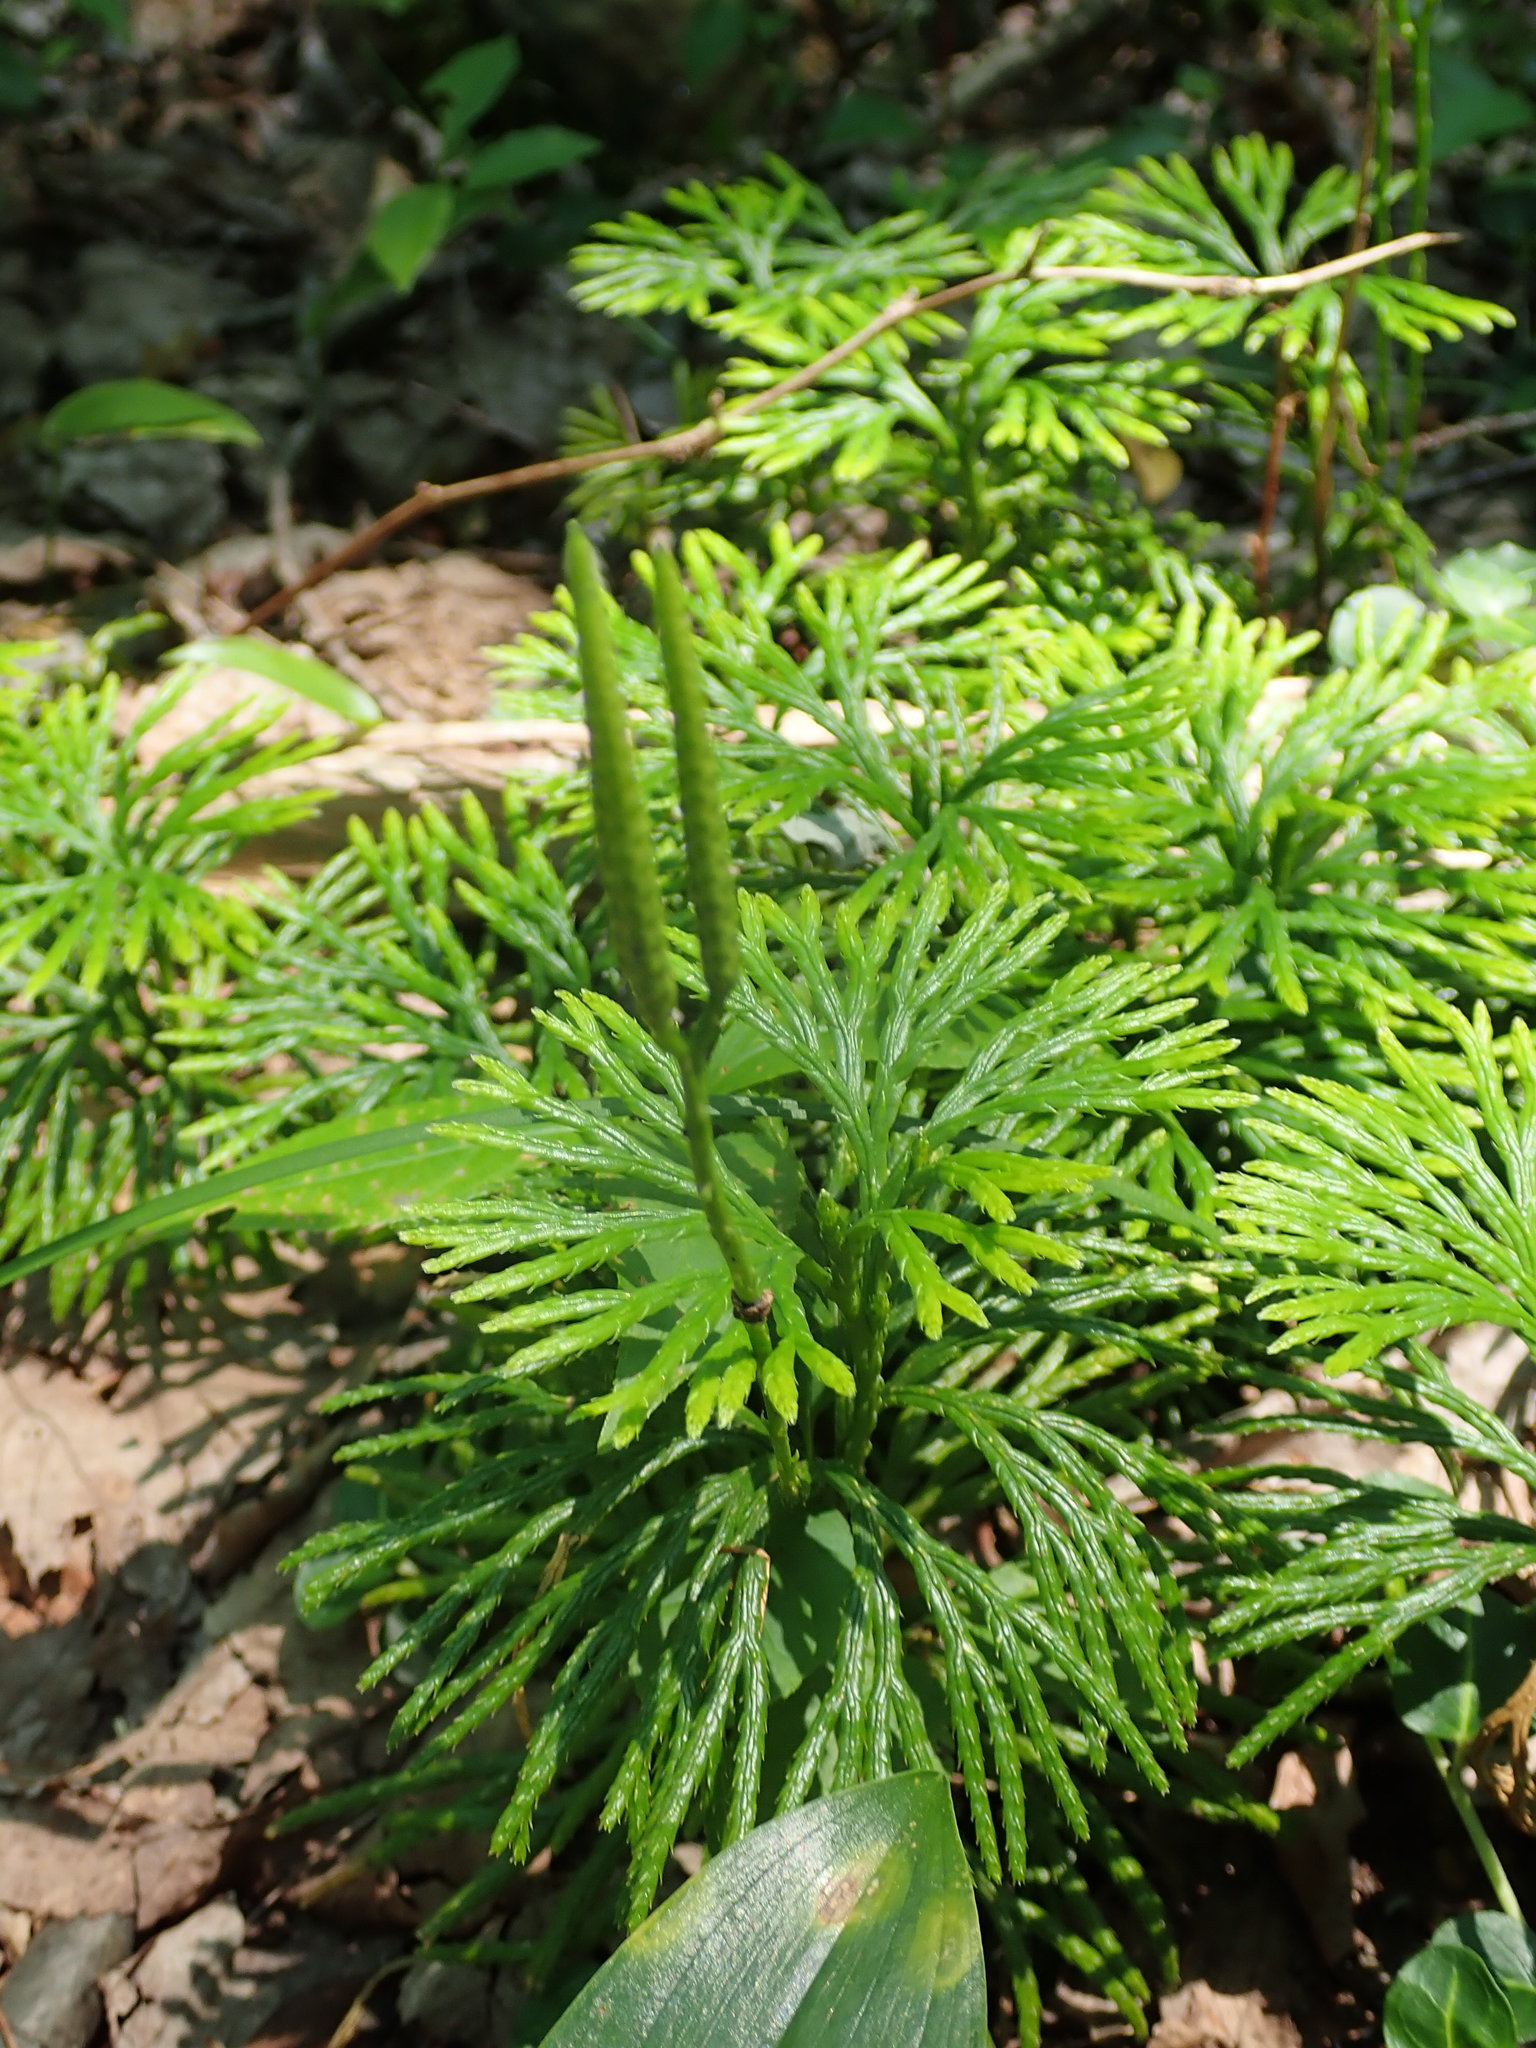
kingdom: Plantae
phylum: Tracheophyta
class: Lycopodiopsida
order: Lycopodiales
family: Lycopodiaceae
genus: Diphasiastrum
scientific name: Diphasiastrum digitatum
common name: Southern running-pine
